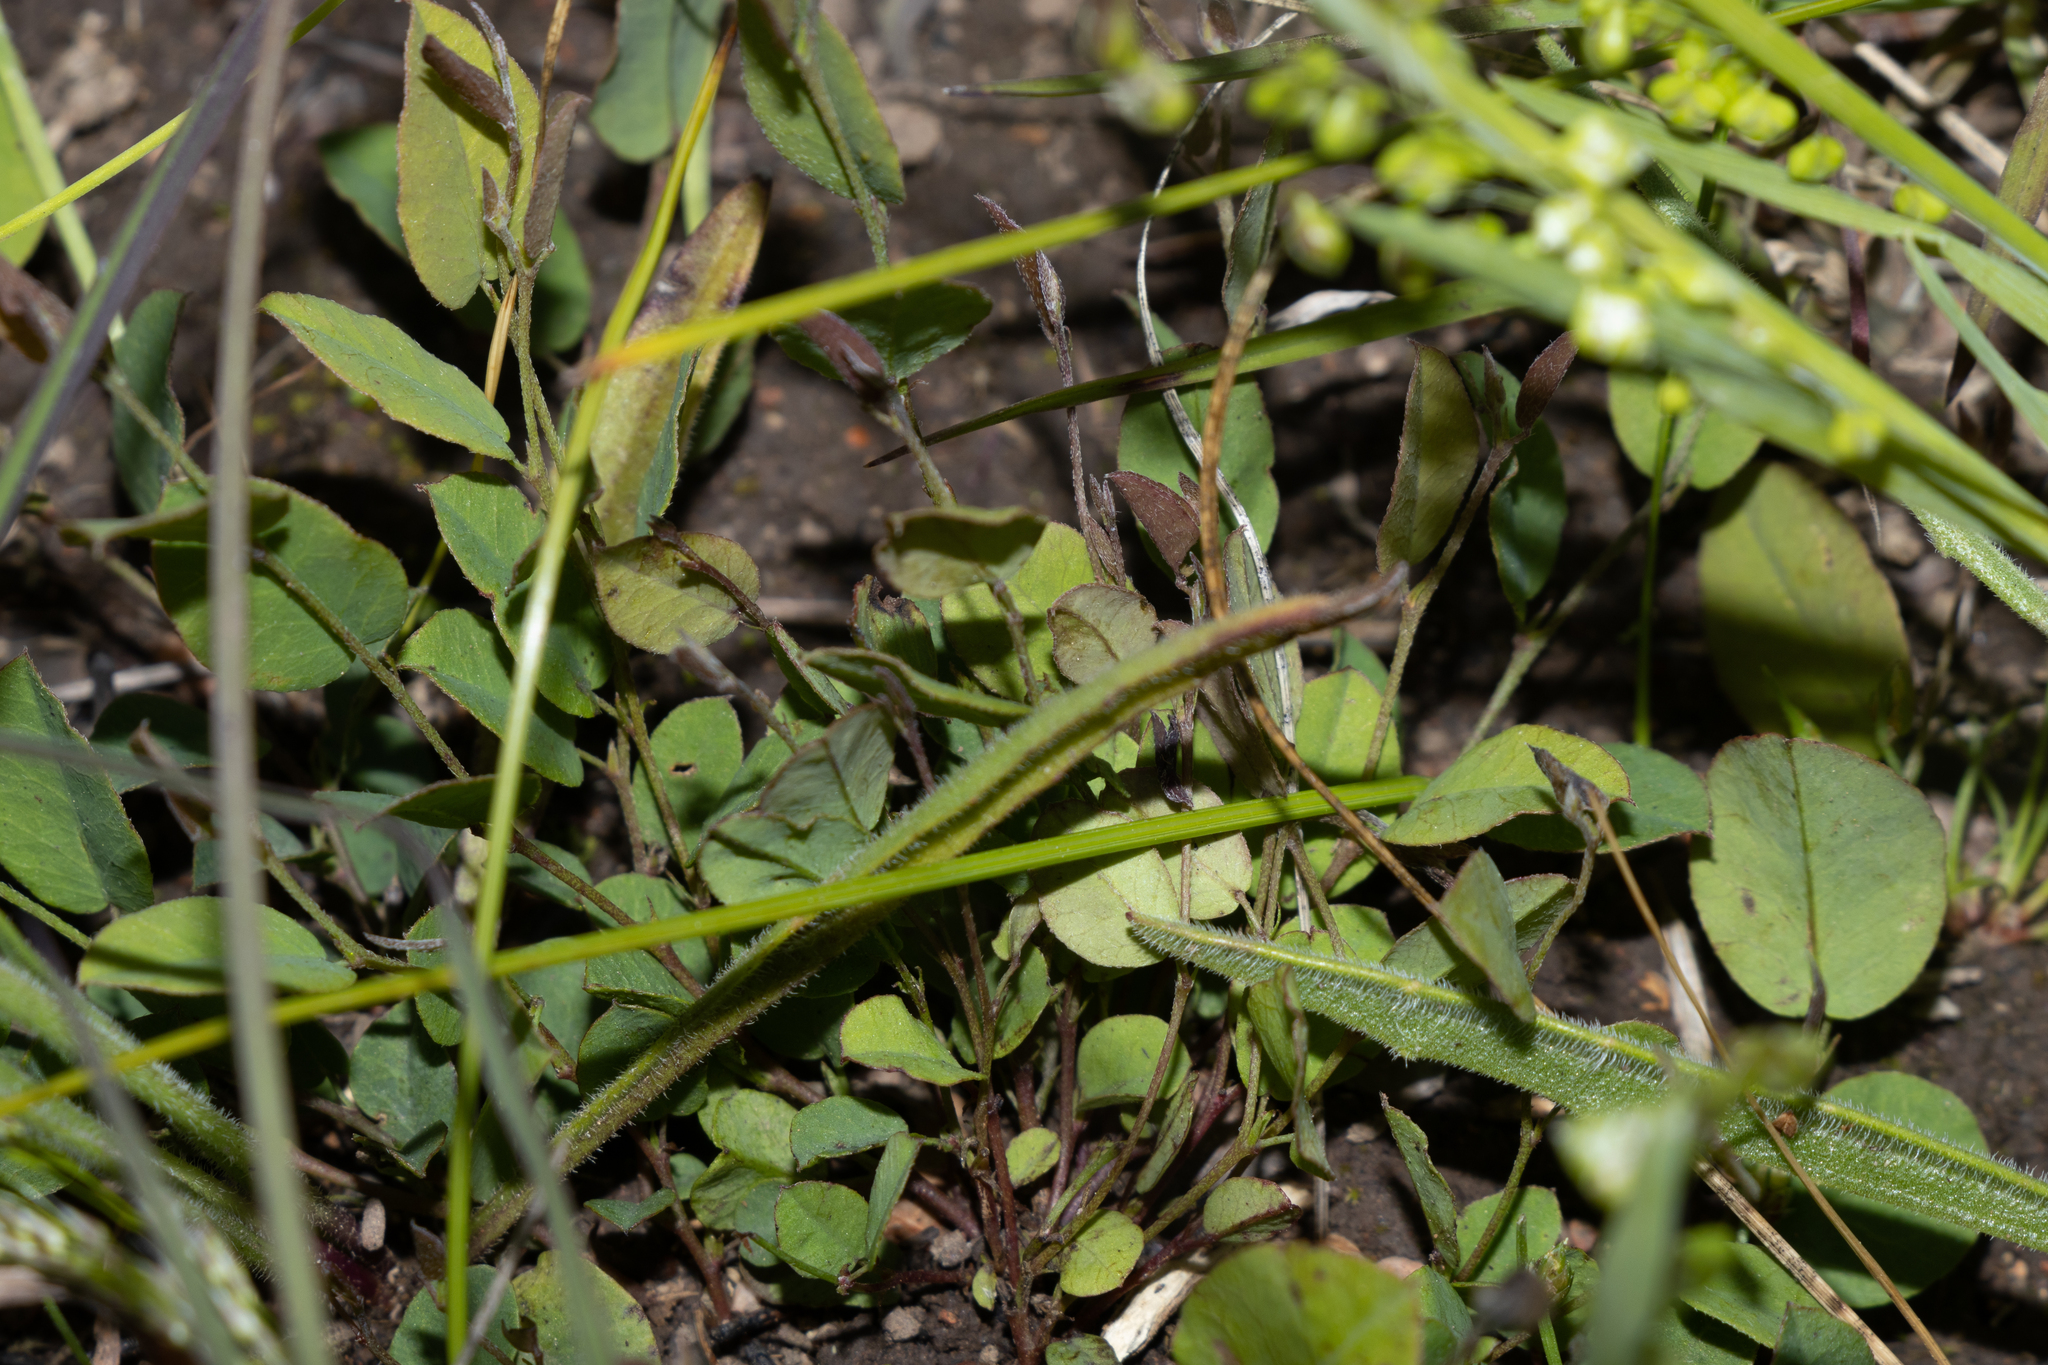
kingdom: Plantae
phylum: Tracheophyta
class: Magnoliopsida
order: Fabales
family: Fabaceae
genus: Bossiaea
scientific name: Bossiaea prostrata
